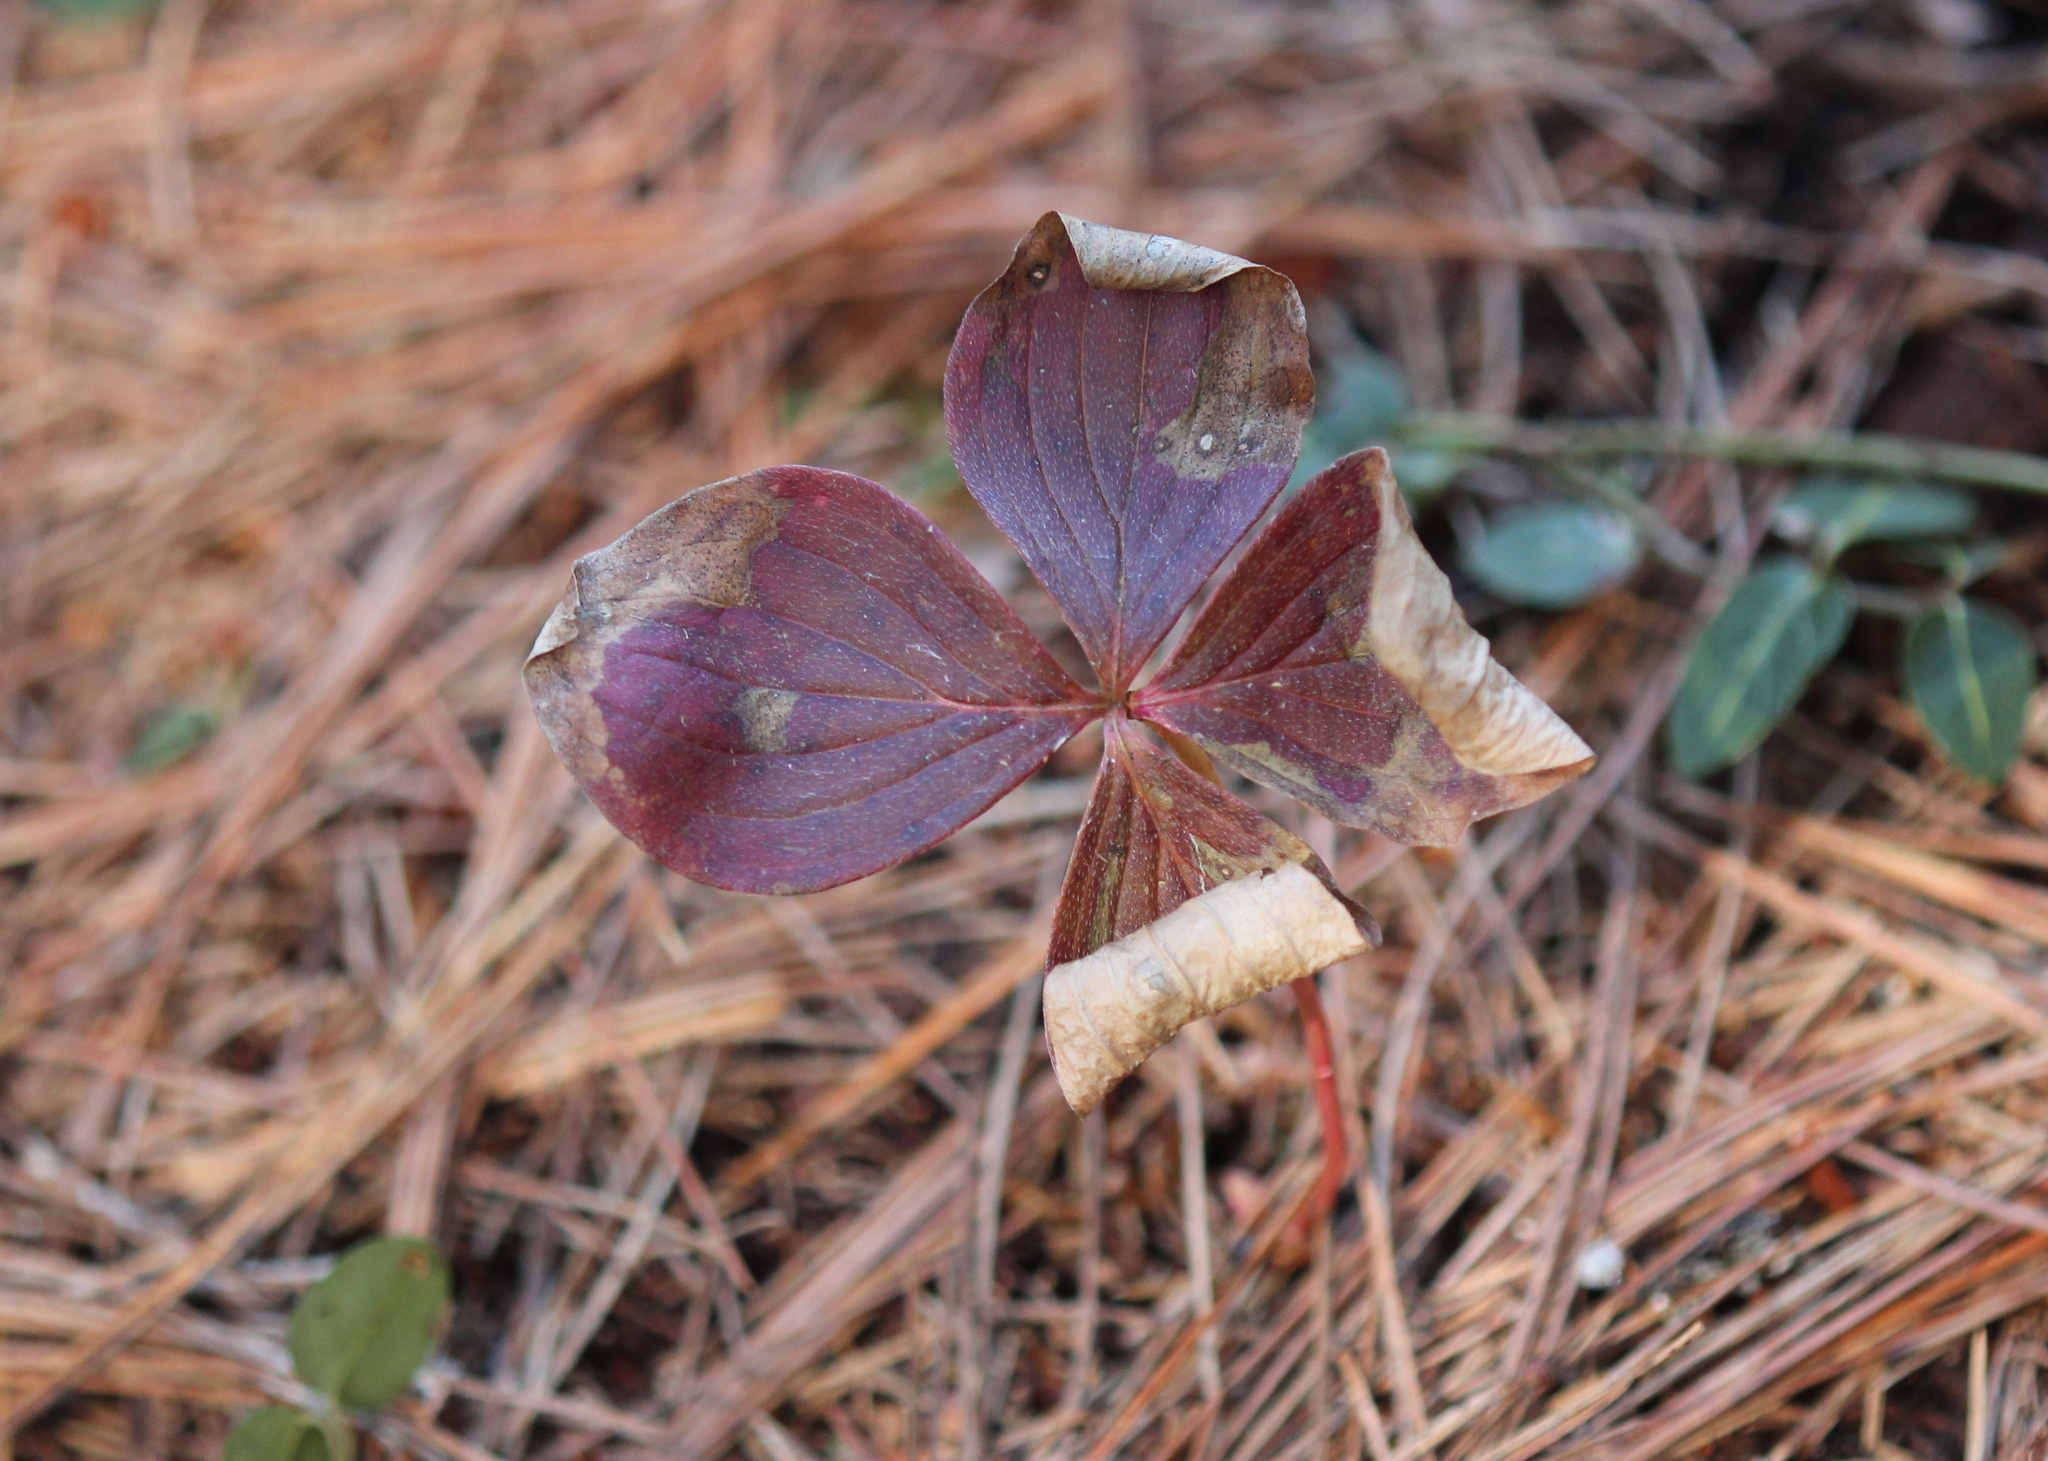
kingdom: Plantae
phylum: Tracheophyta
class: Magnoliopsida
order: Cornales
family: Cornaceae
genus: Cornus
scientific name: Cornus canadensis
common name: Creeping dogwood
